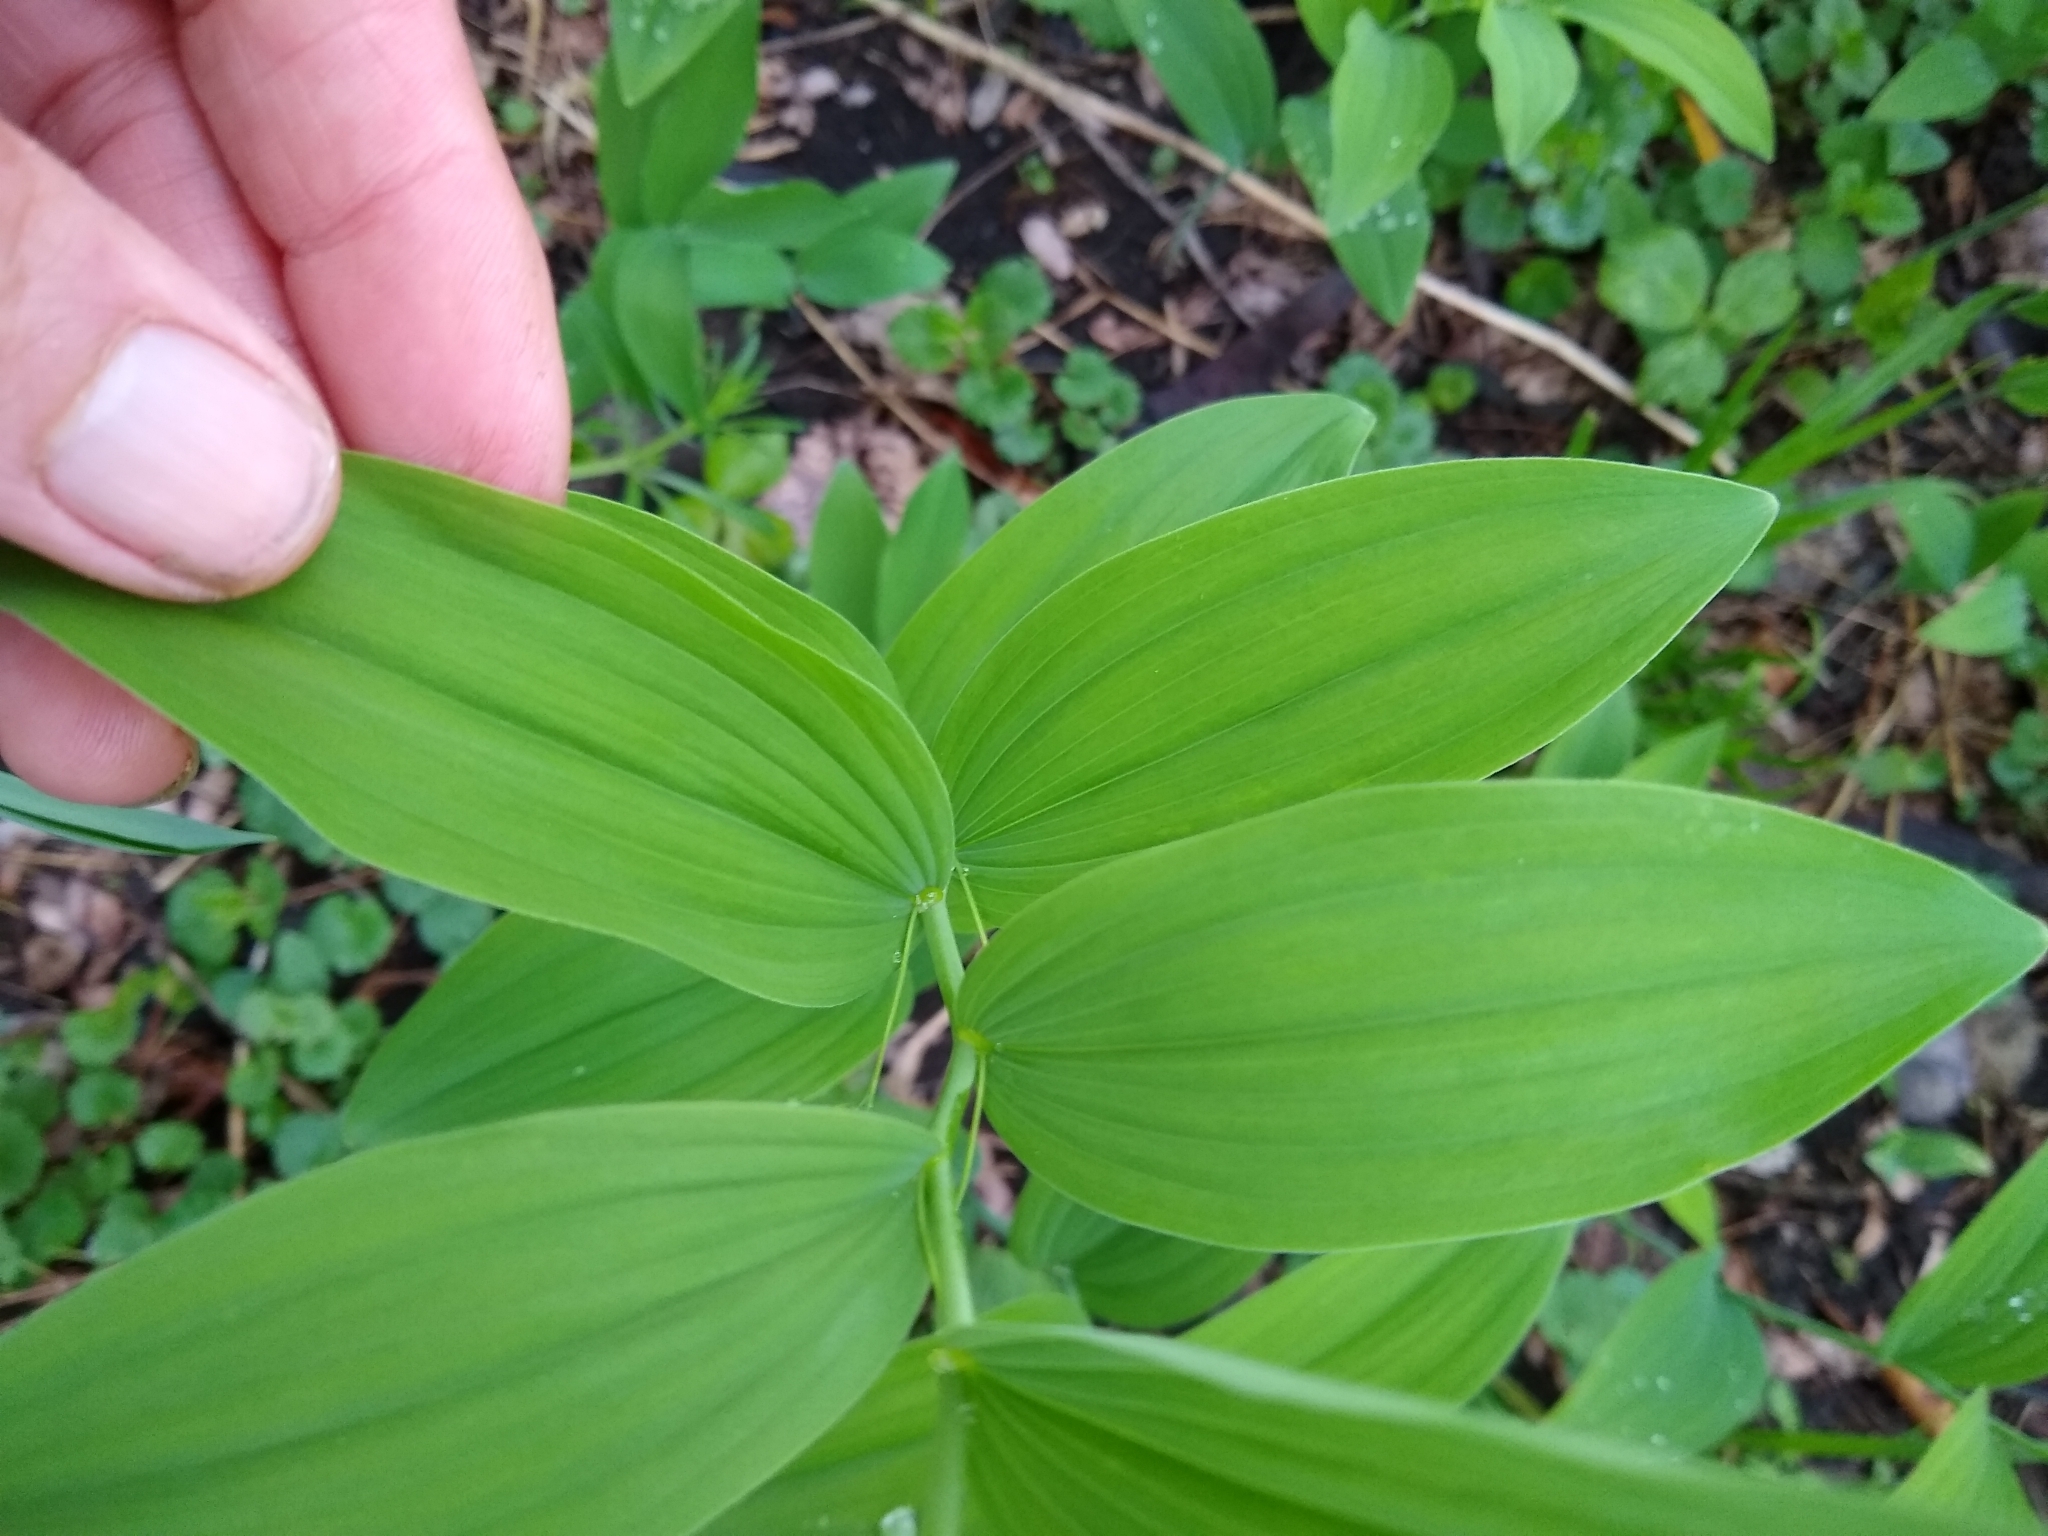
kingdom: Plantae
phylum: Tracheophyta
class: Liliopsida
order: Asparagales
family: Asparagaceae
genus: Polygonatum
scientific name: Polygonatum biflorum
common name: American solomon's-seal
